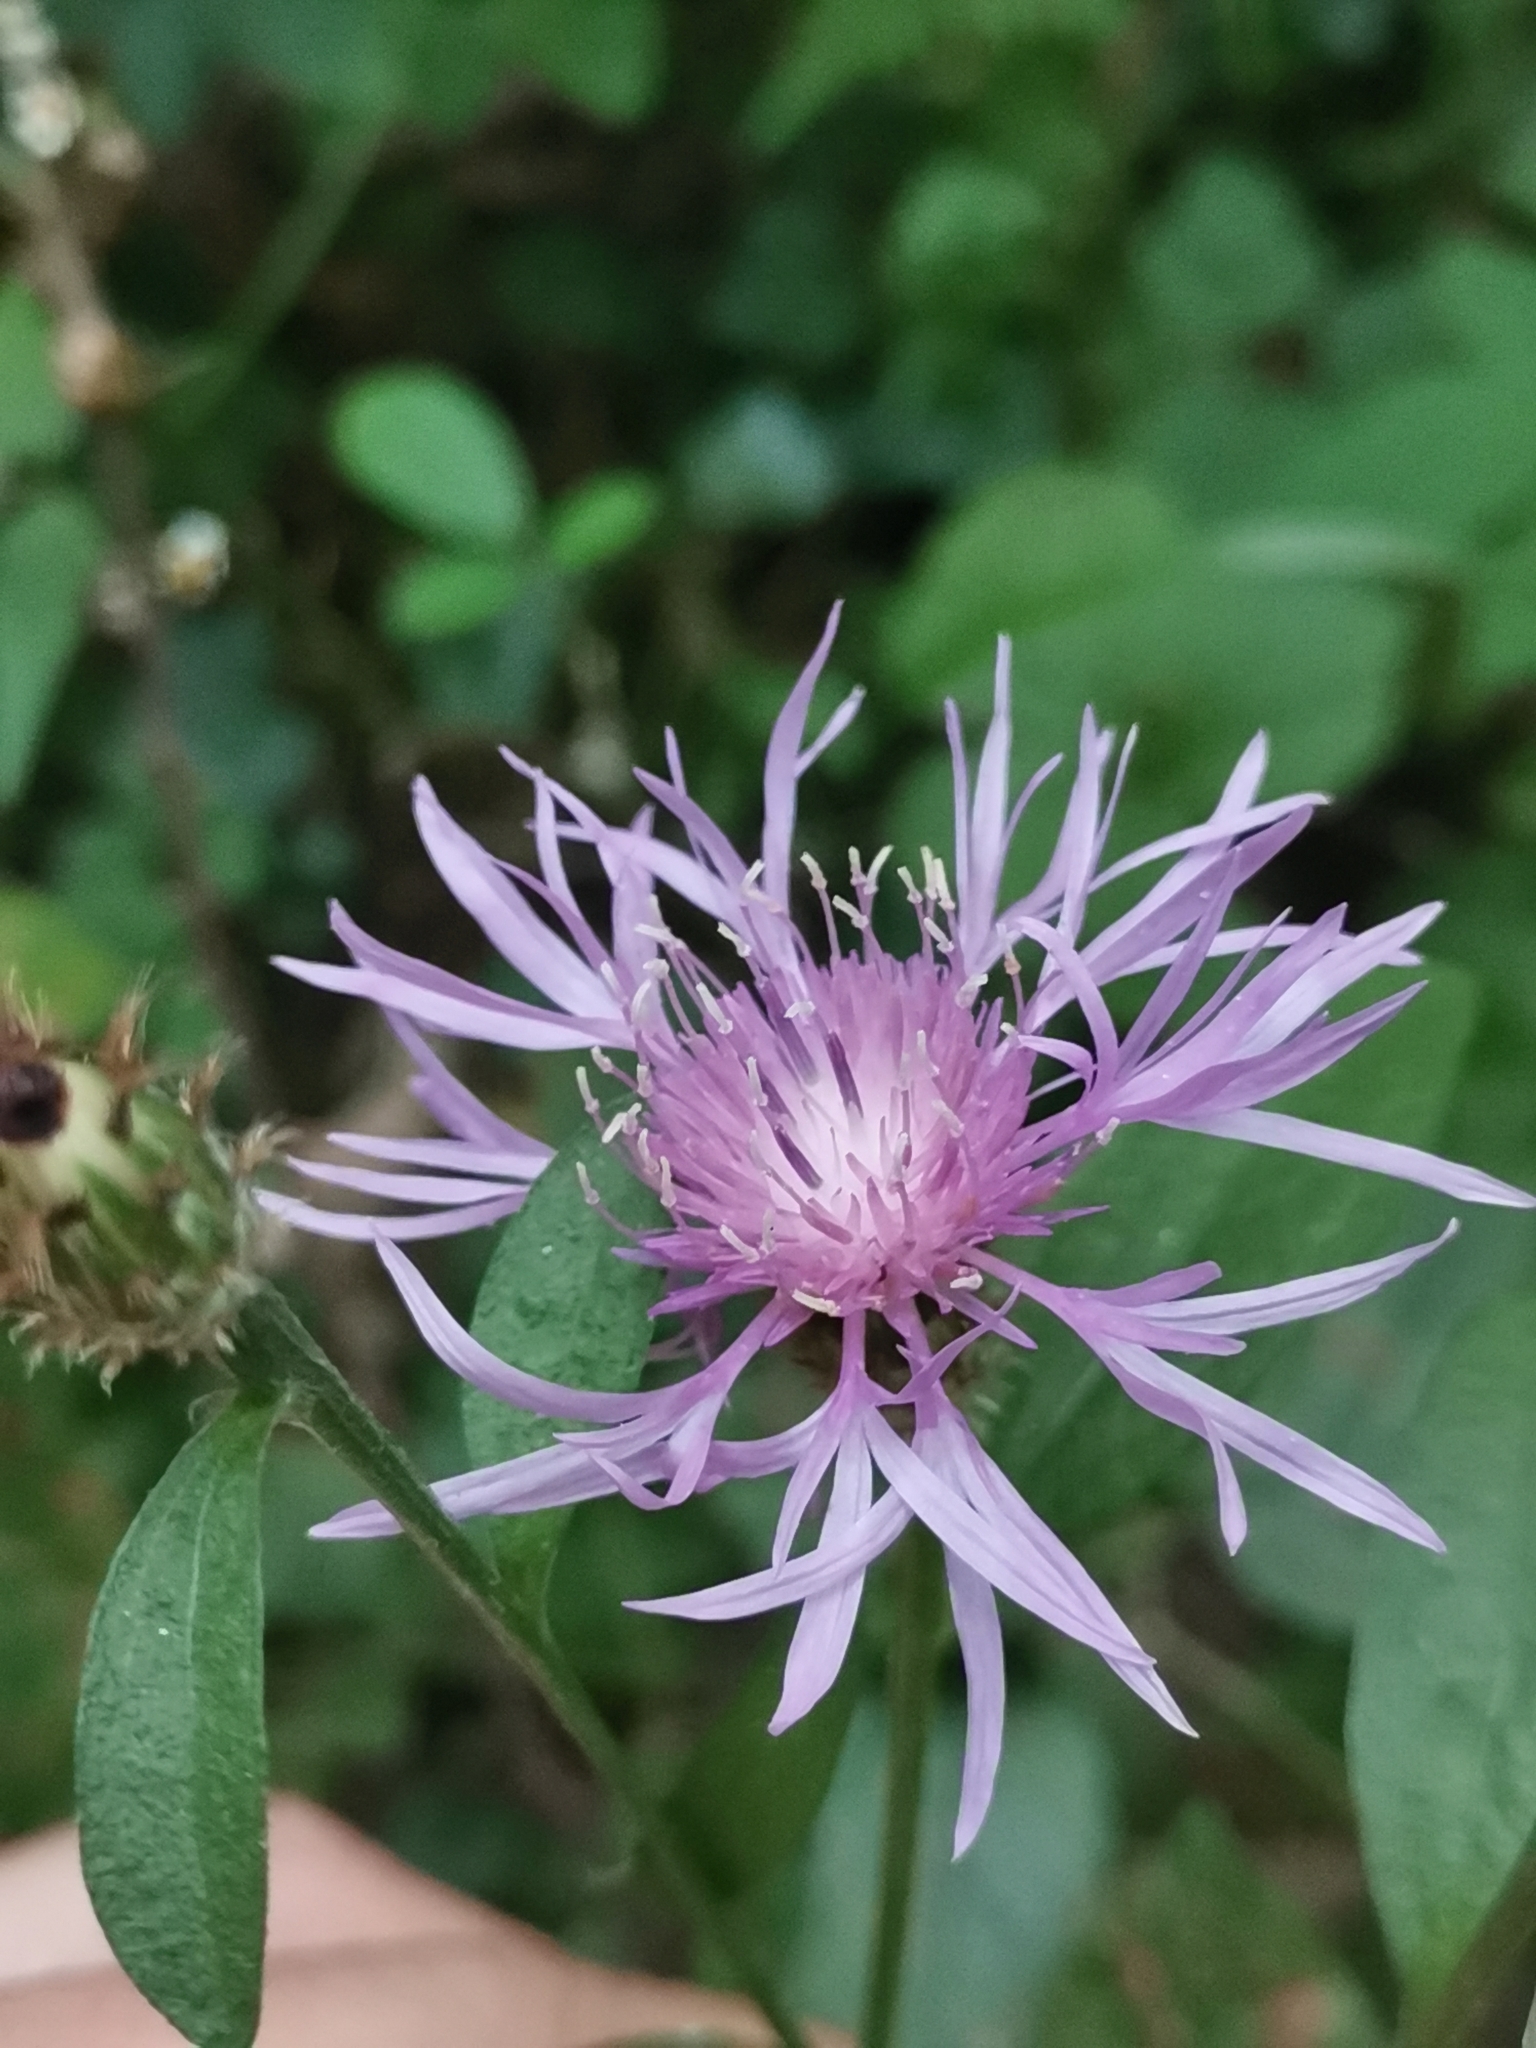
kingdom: Plantae
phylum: Tracheophyta
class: Magnoliopsida
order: Asterales
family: Asteraceae
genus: Centaurea
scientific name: Centaurea macroptilon
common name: Giant knapweed
